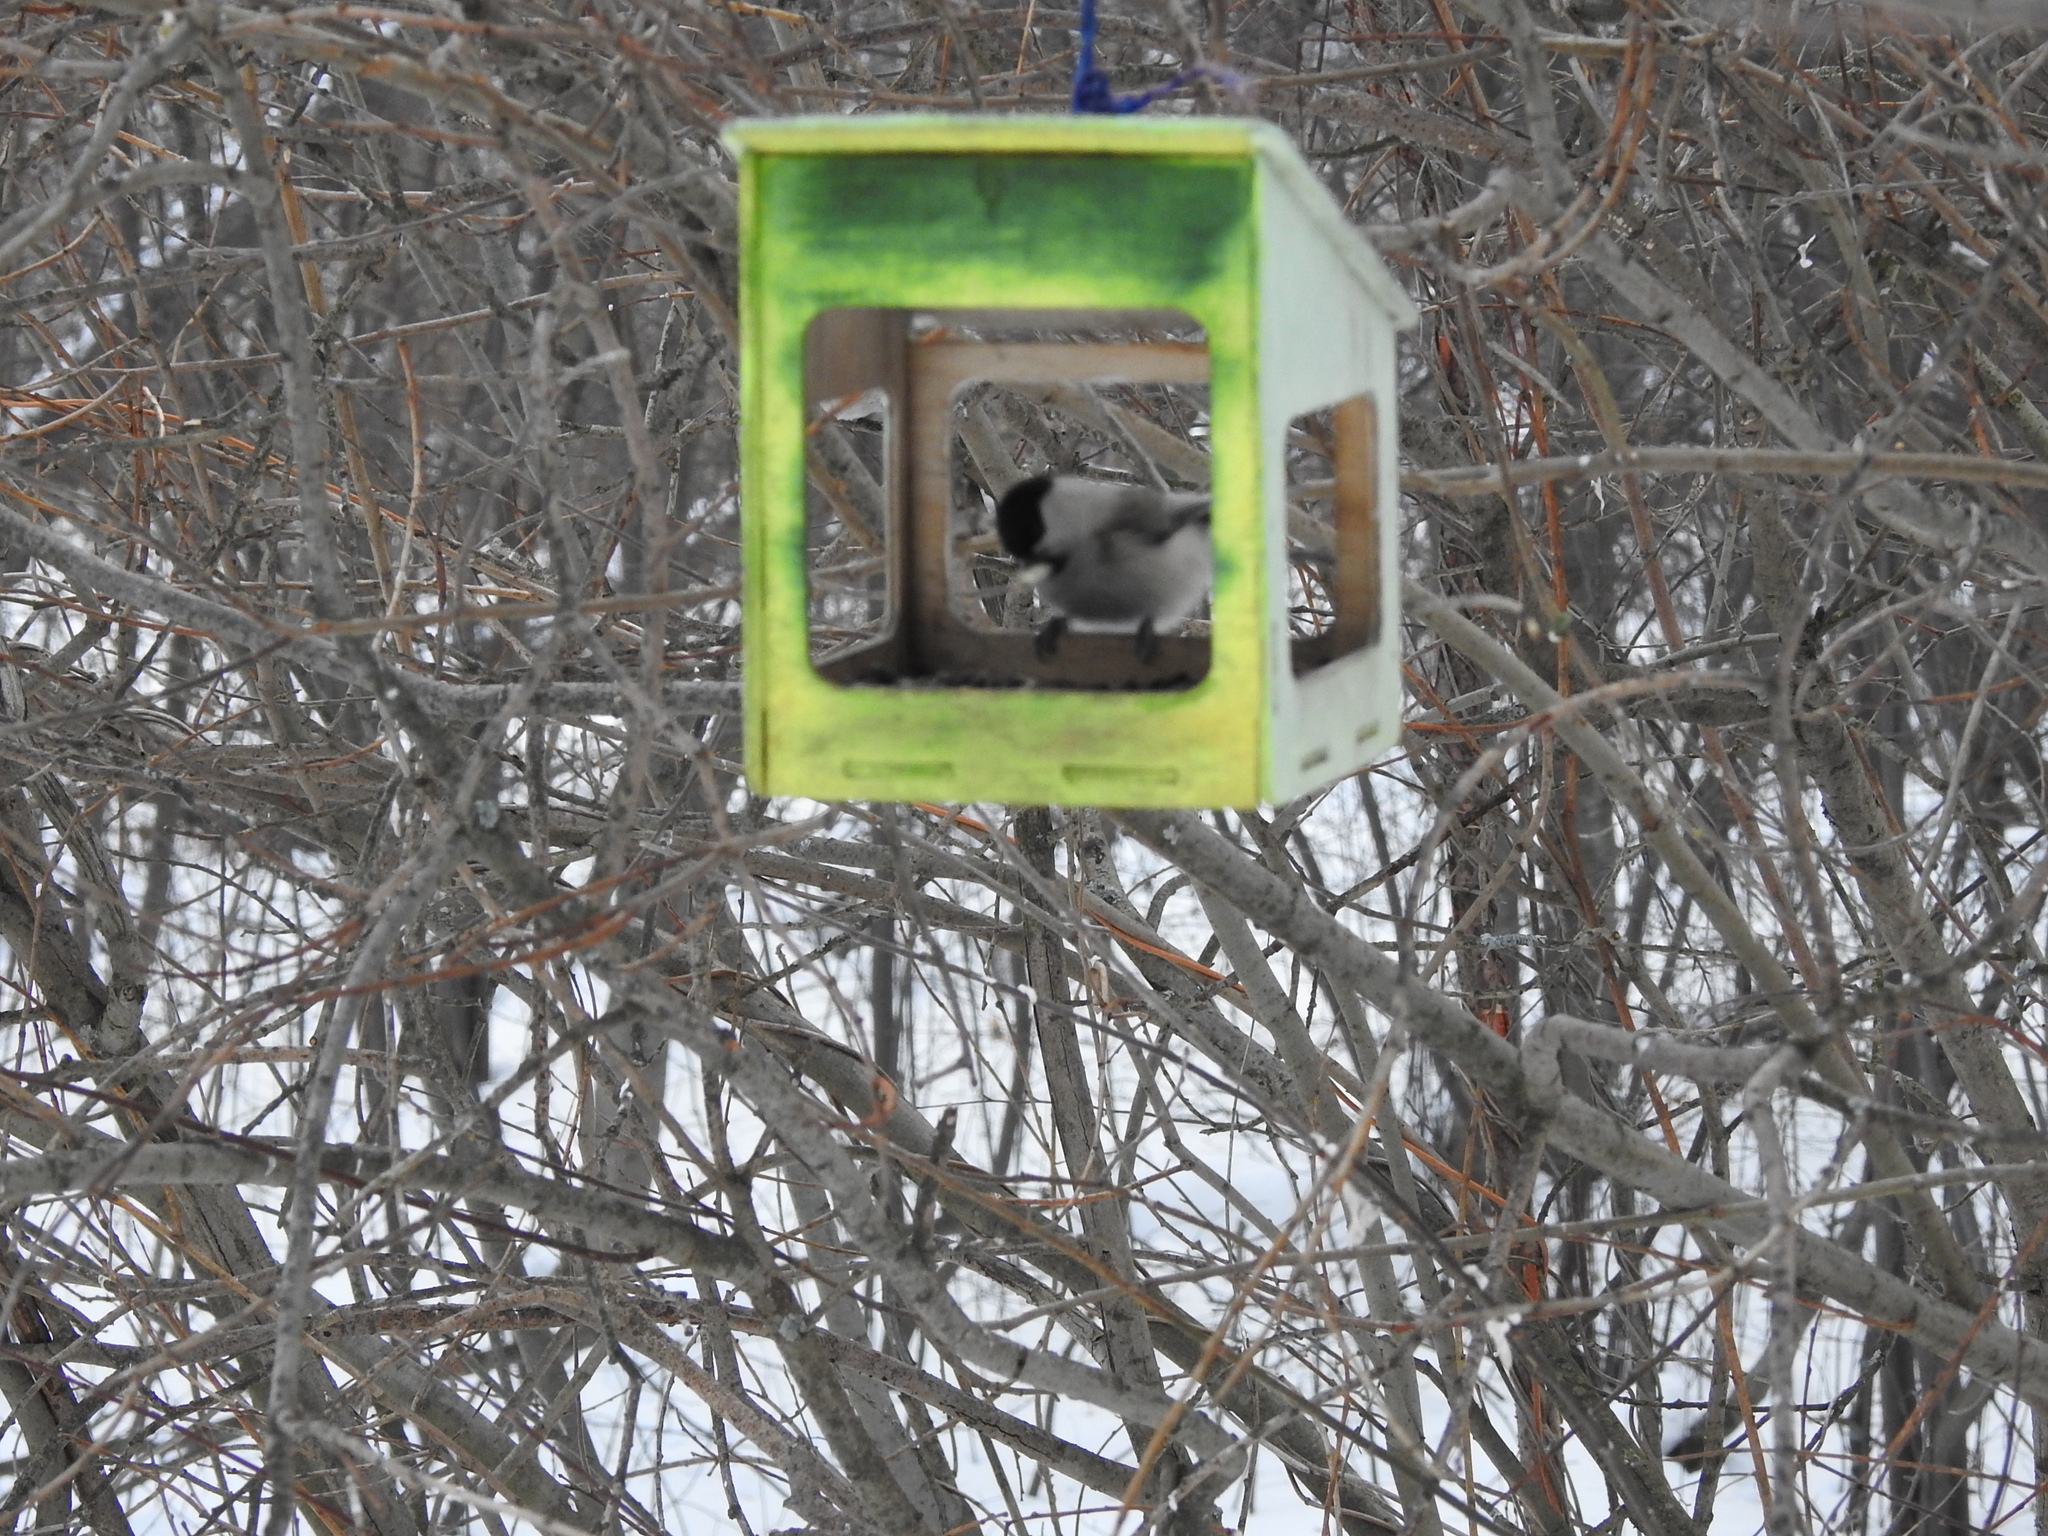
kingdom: Animalia
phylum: Chordata
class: Aves
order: Passeriformes
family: Paridae
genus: Poecile
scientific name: Poecile montanus
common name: Willow tit
